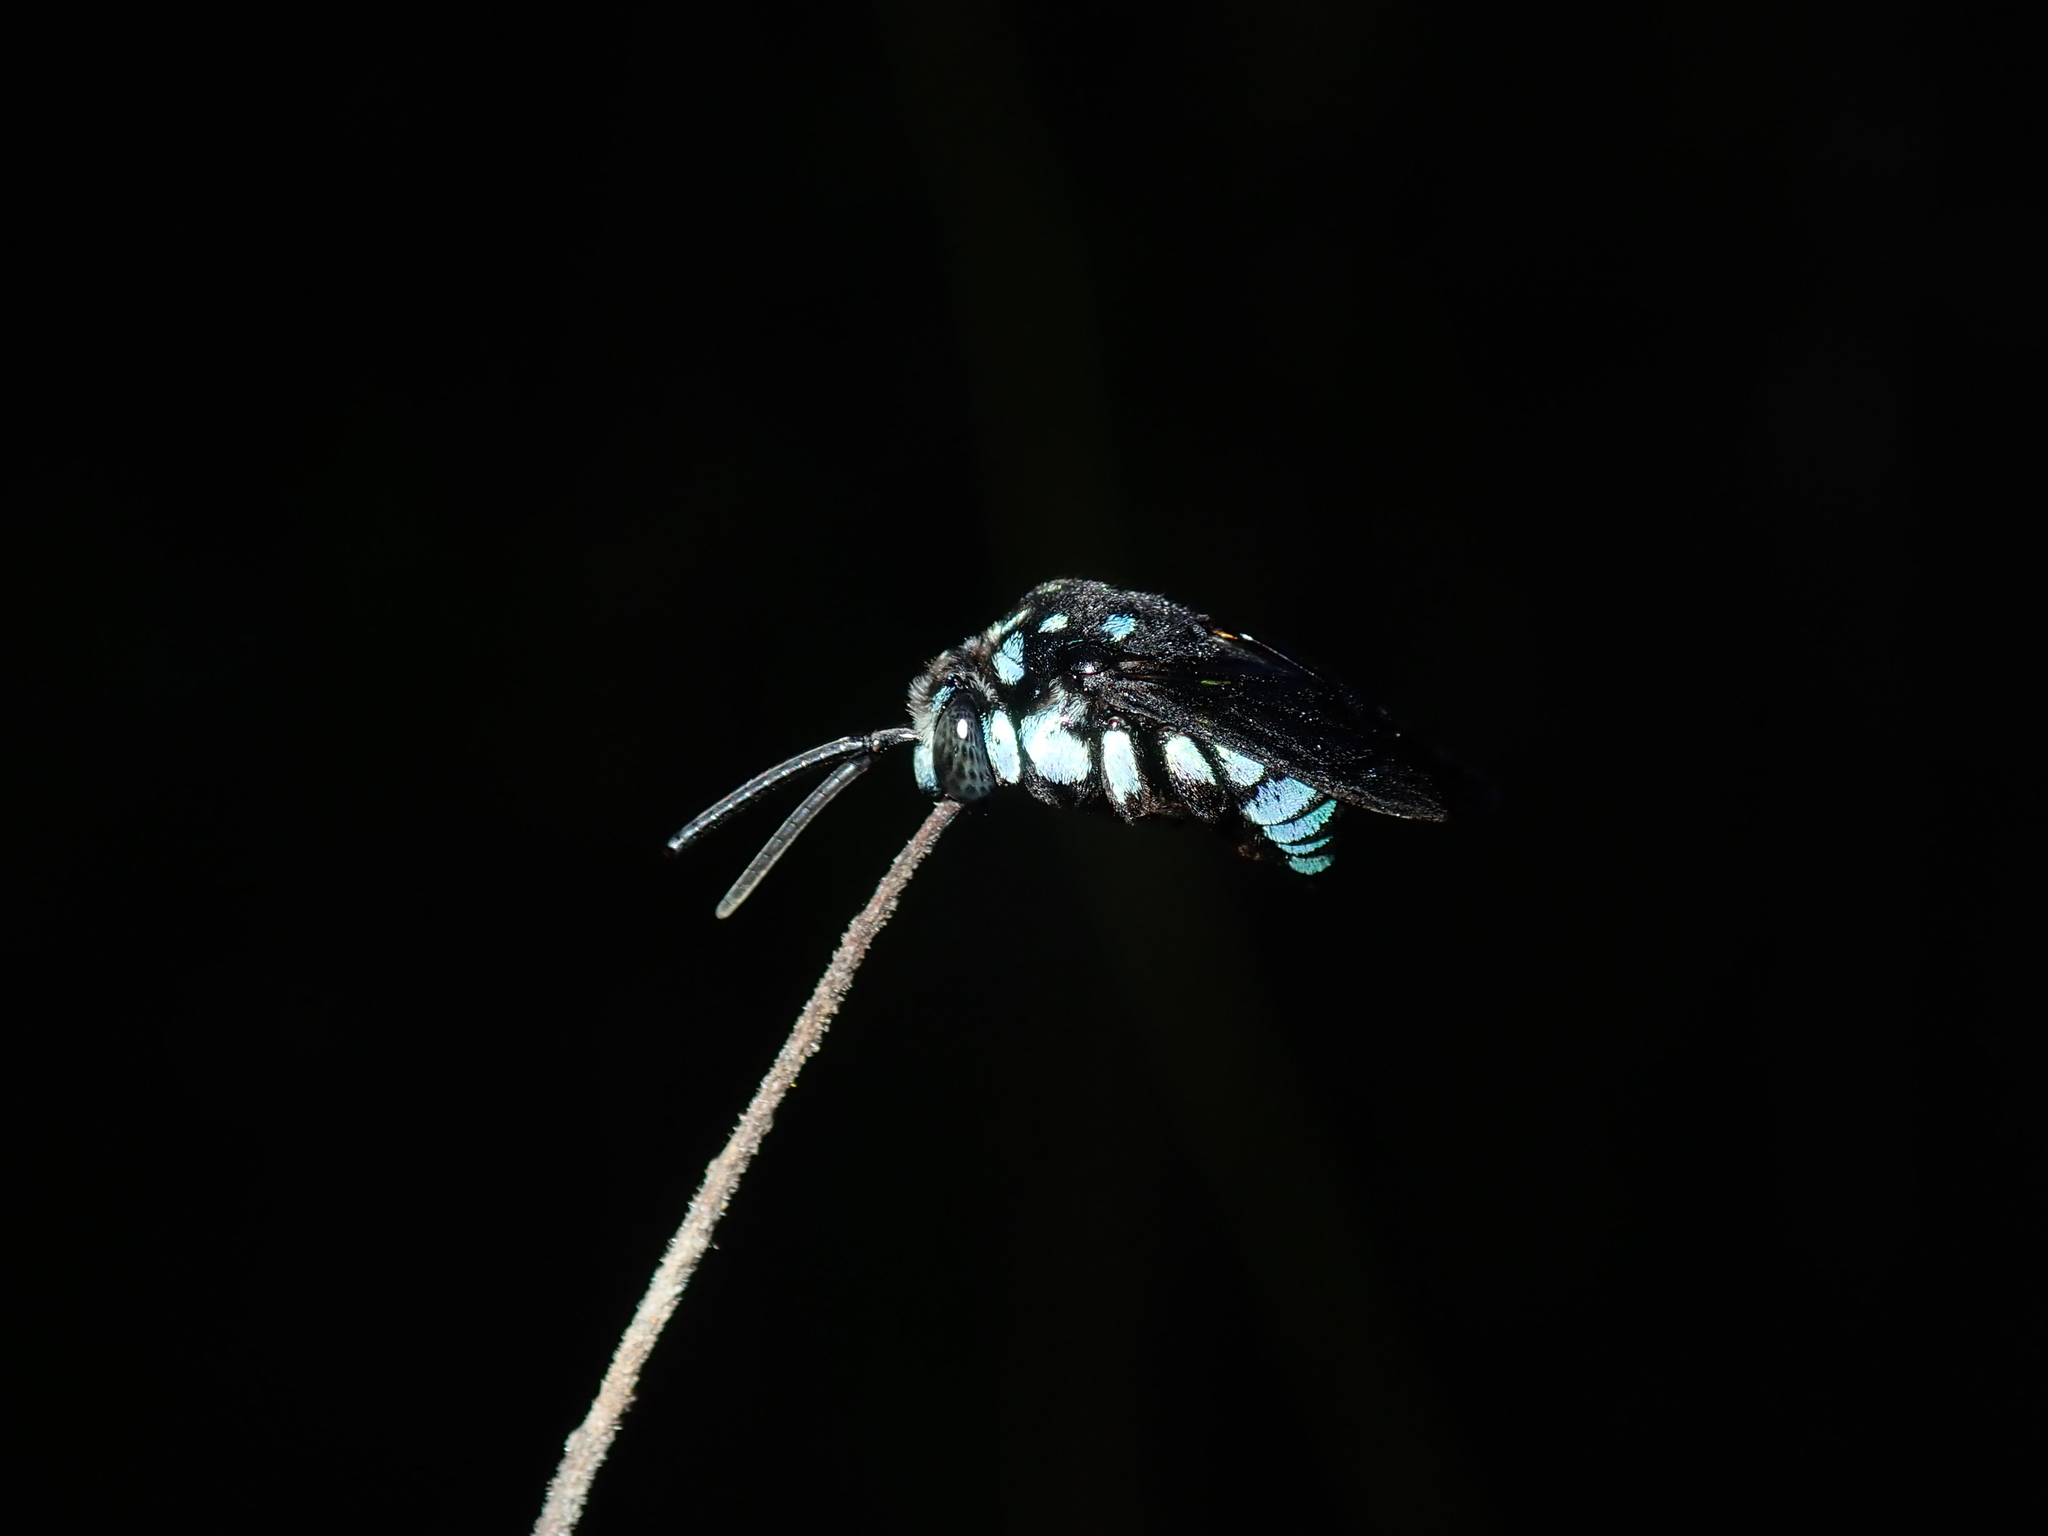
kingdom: Animalia
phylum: Arthropoda
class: Insecta
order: Hymenoptera
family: Apidae
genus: Thyreus
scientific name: Thyreus nitidulus
